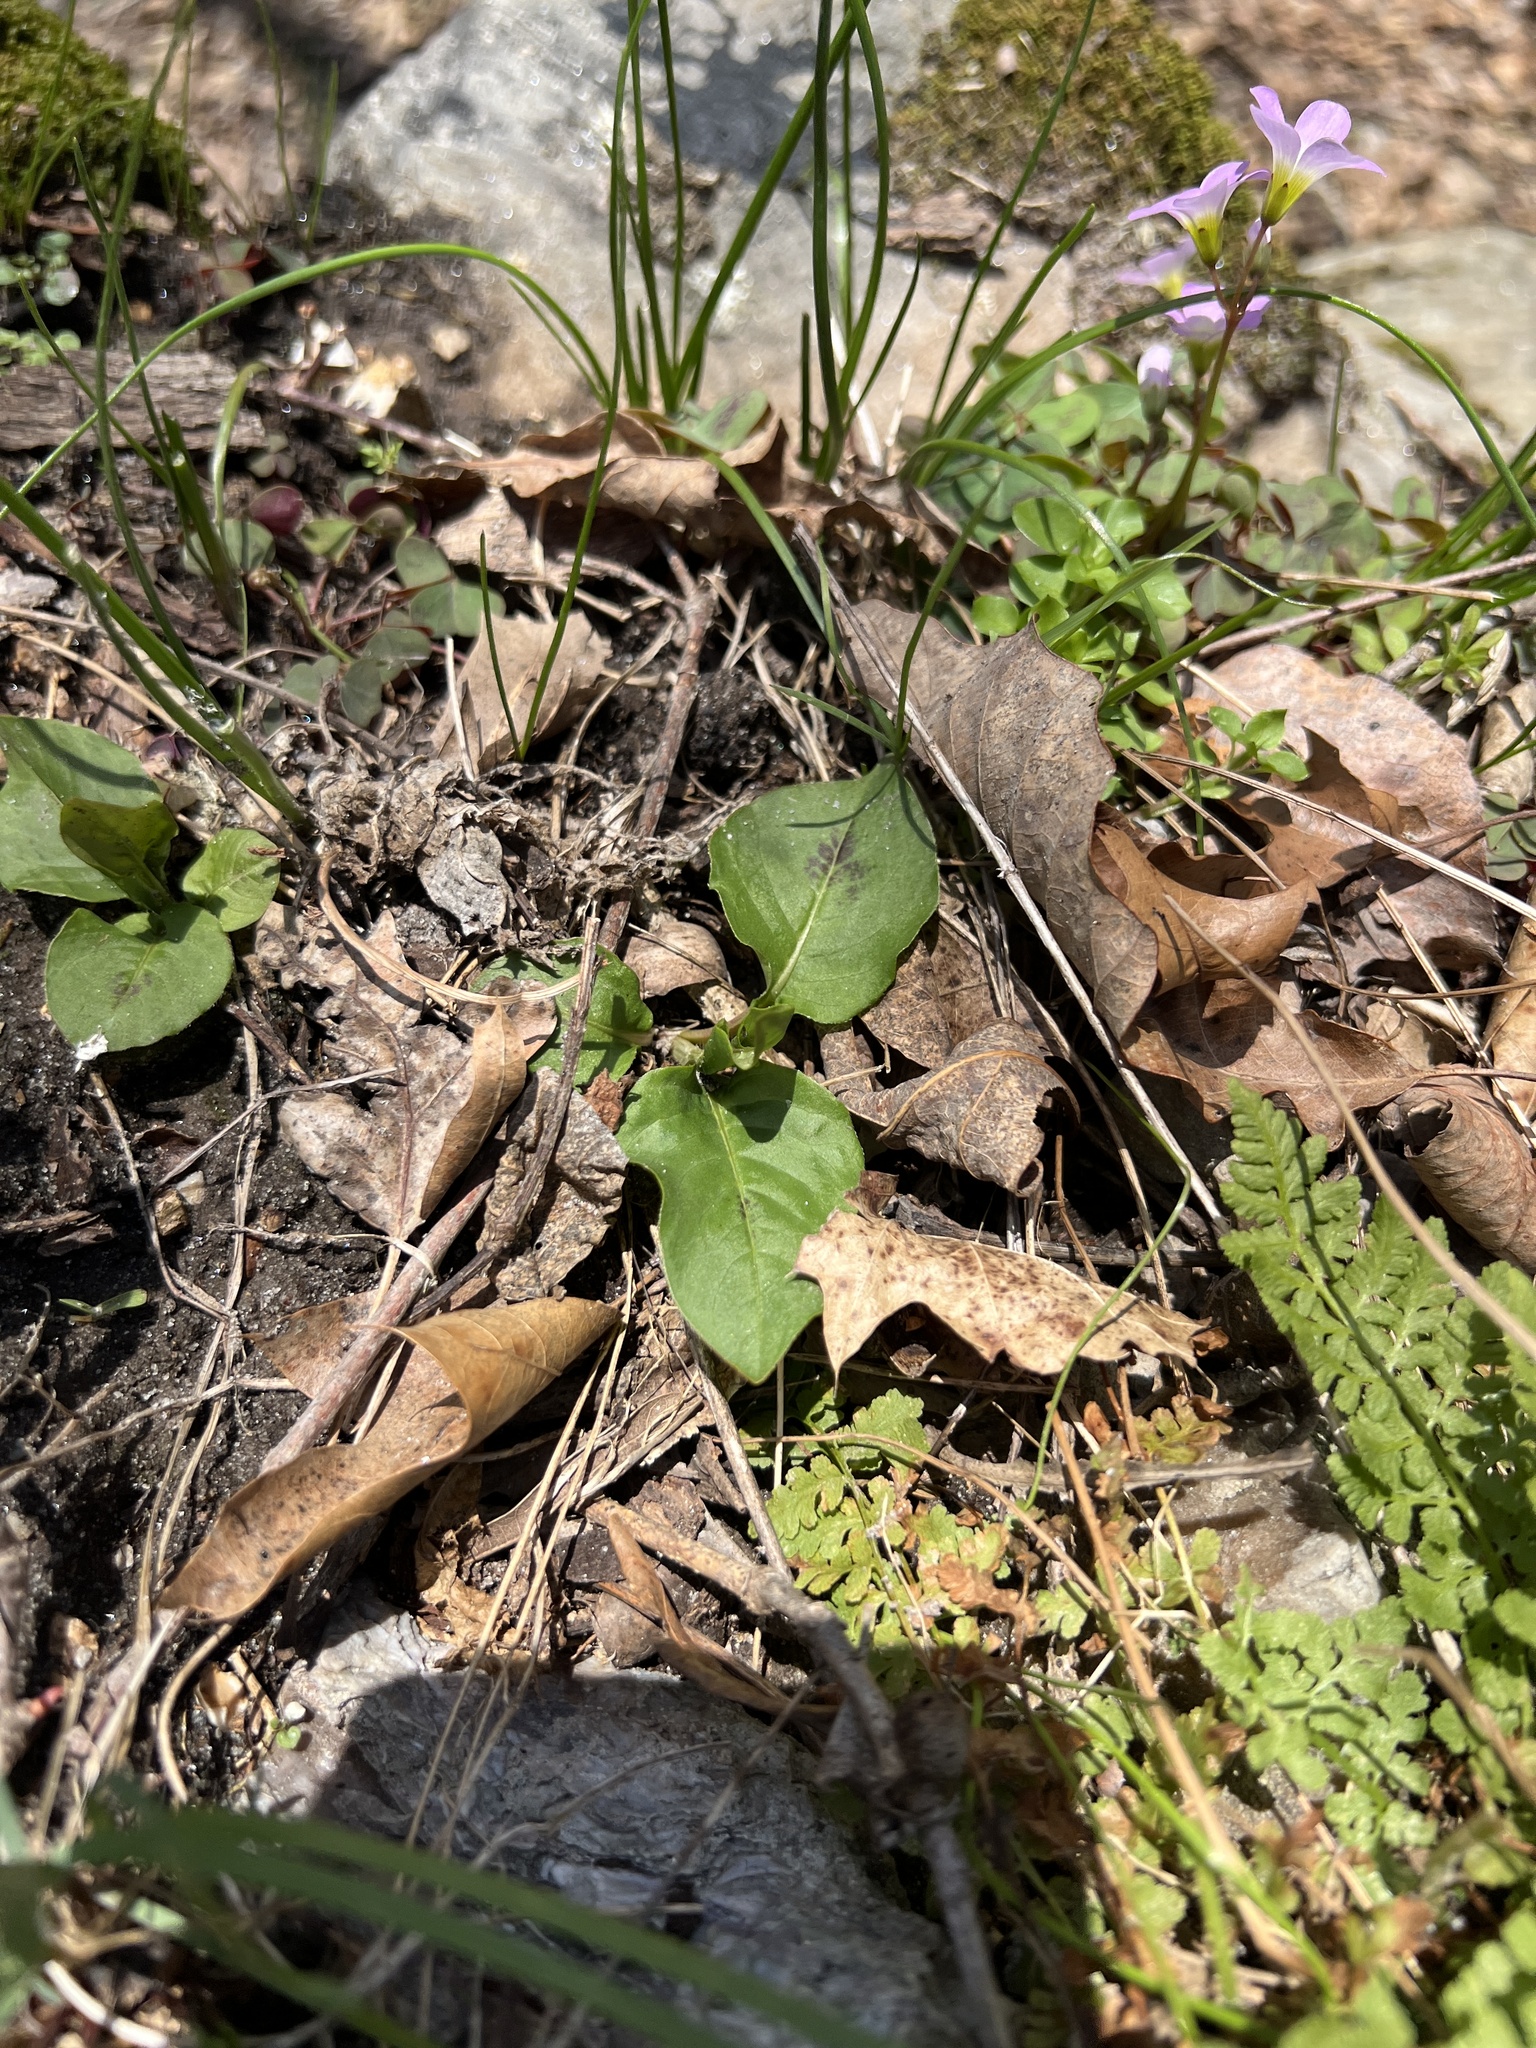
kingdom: Plantae
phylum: Tracheophyta
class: Magnoliopsida
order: Caryophyllales
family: Polygonaceae
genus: Persicaria
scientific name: Persicaria virginiana
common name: Jumpseed
